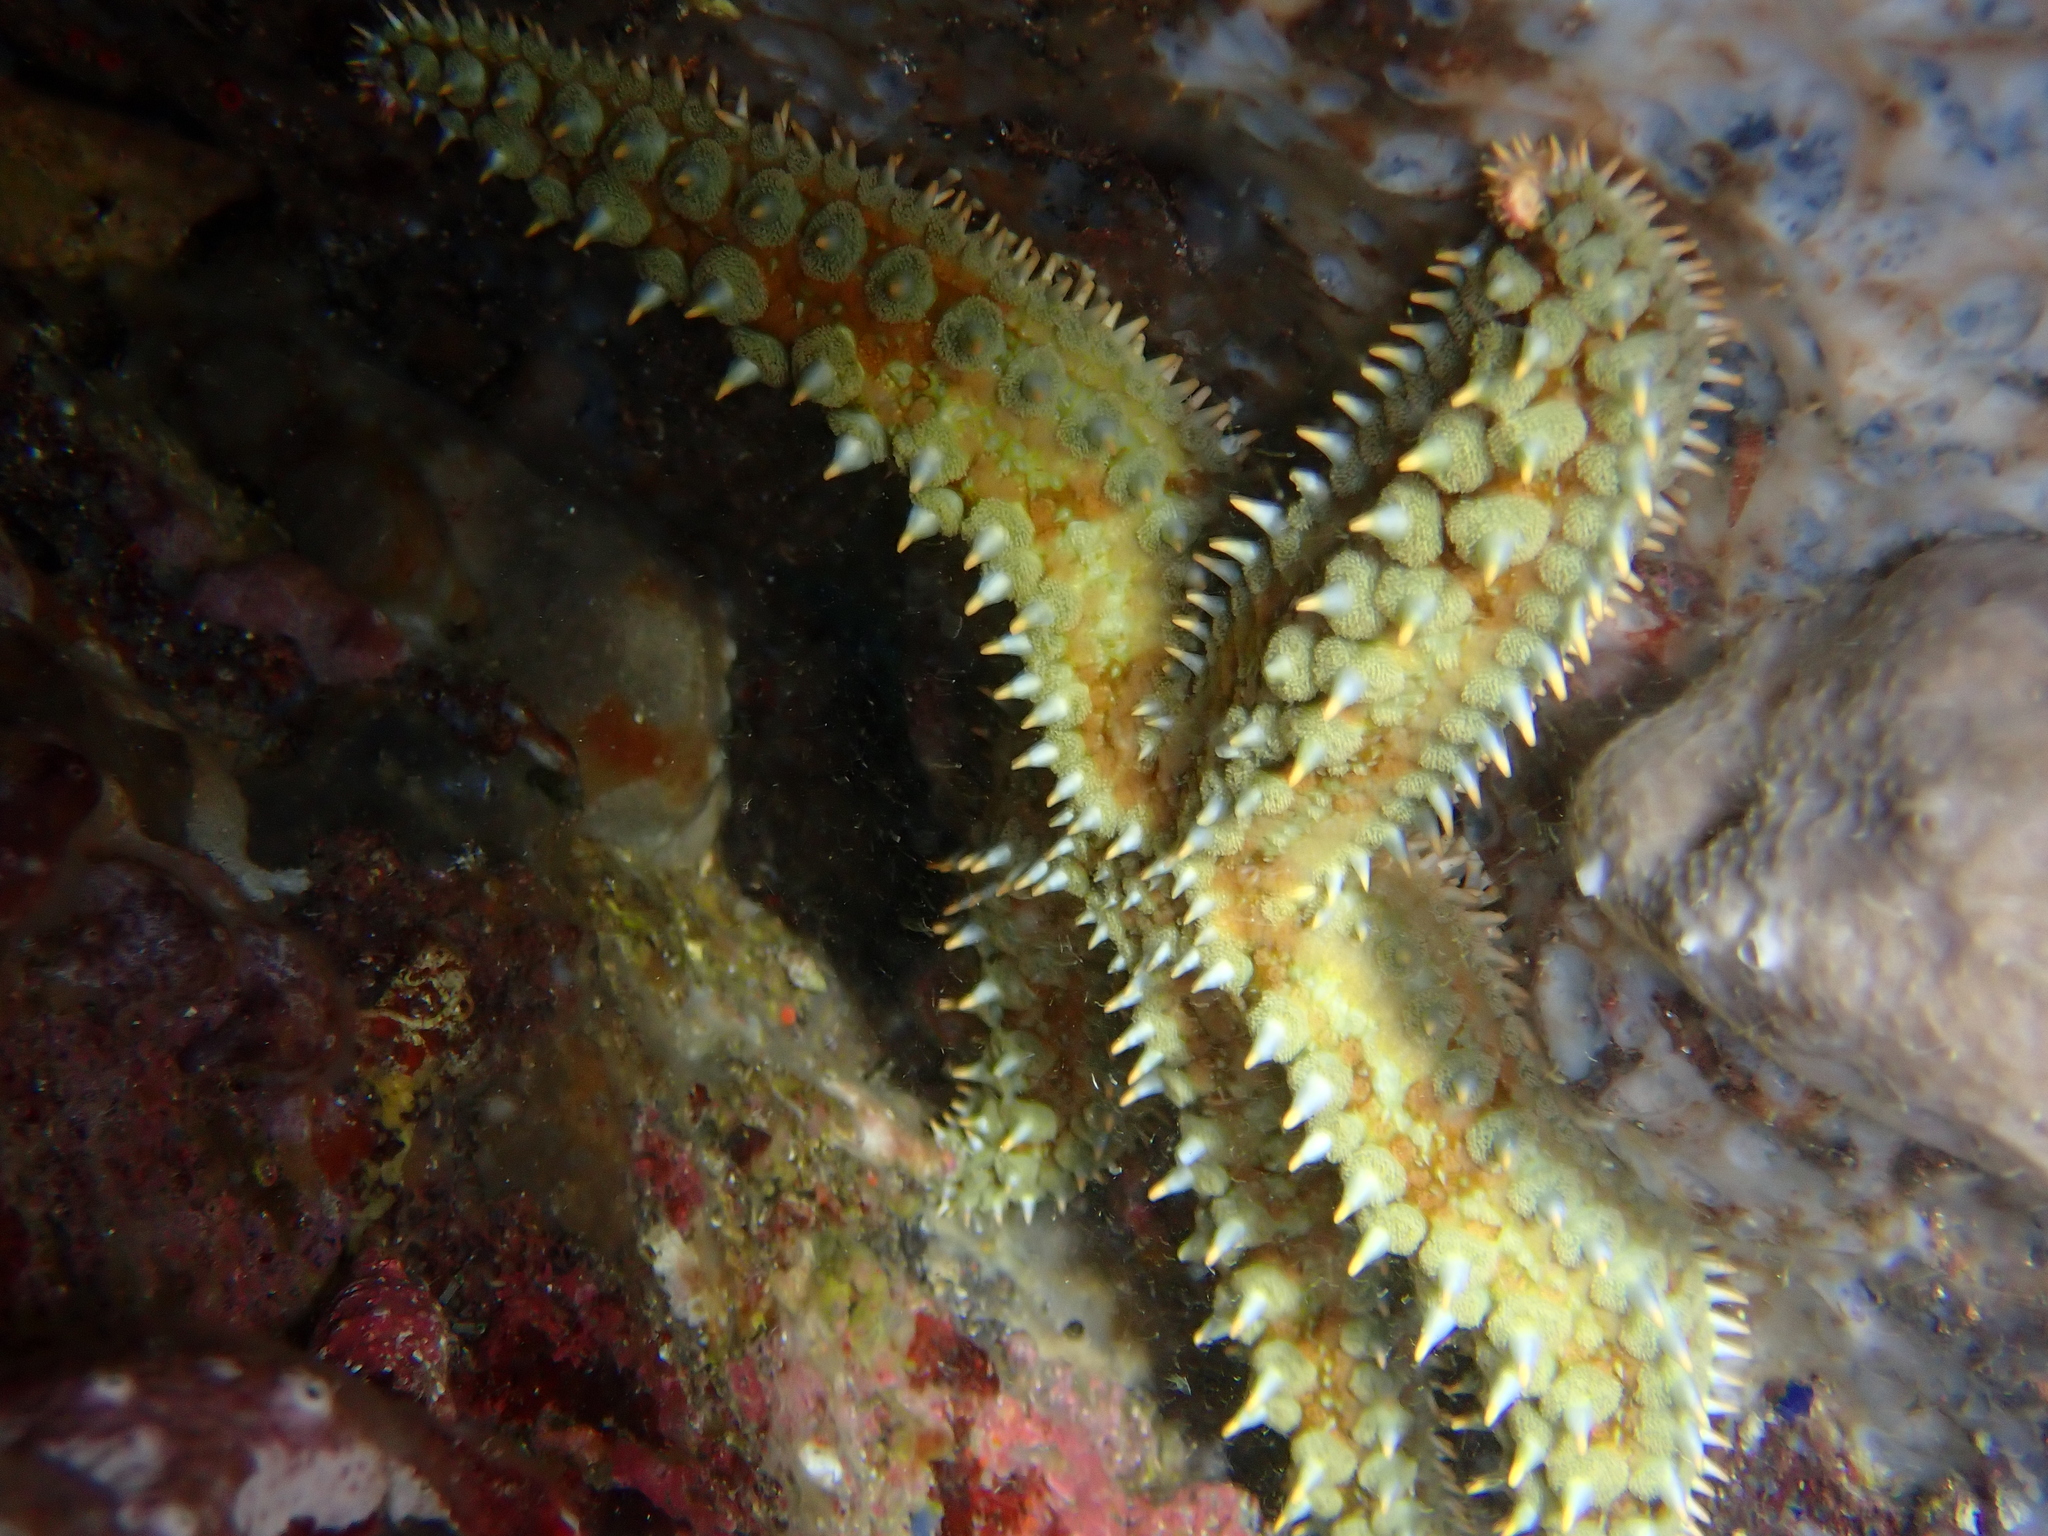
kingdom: Animalia
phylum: Echinodermata
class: Asteroidea
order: Forcipulatida
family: Asteriidae
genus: Marthasterias
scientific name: Marthasterias glacialis
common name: Spiny starfish
